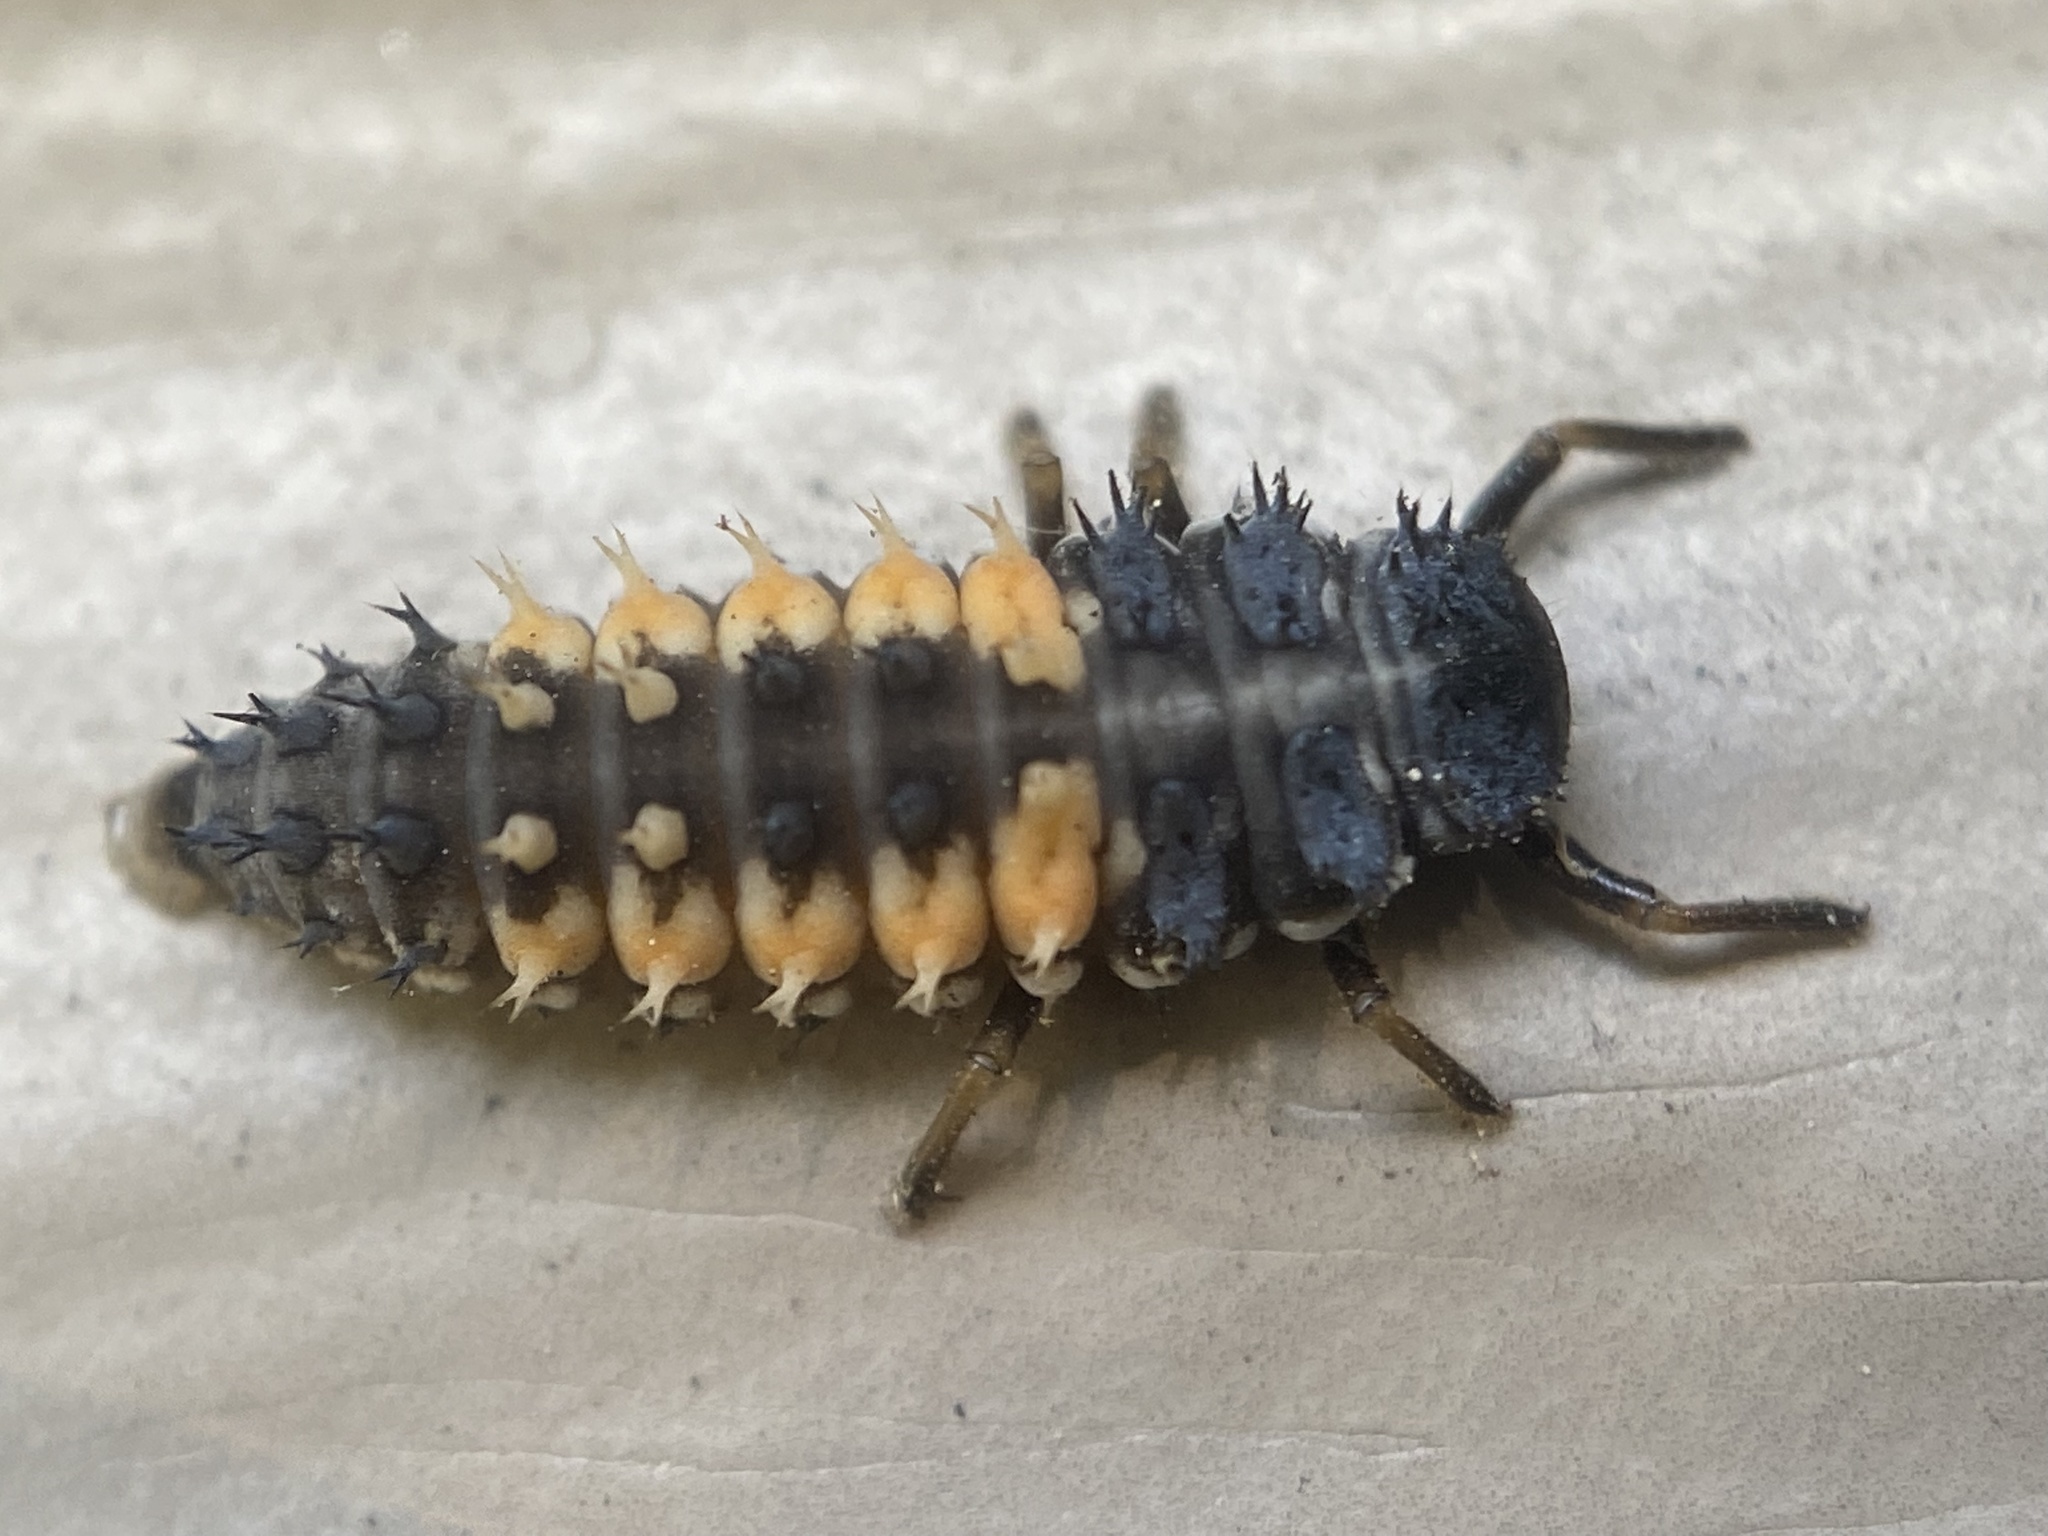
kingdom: Animalia
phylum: Arthropoda
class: Insecta
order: Coleoptera
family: Coccinellidae
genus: Harmonia
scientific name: Harmonia axyridis
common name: Harlequin ladybird
